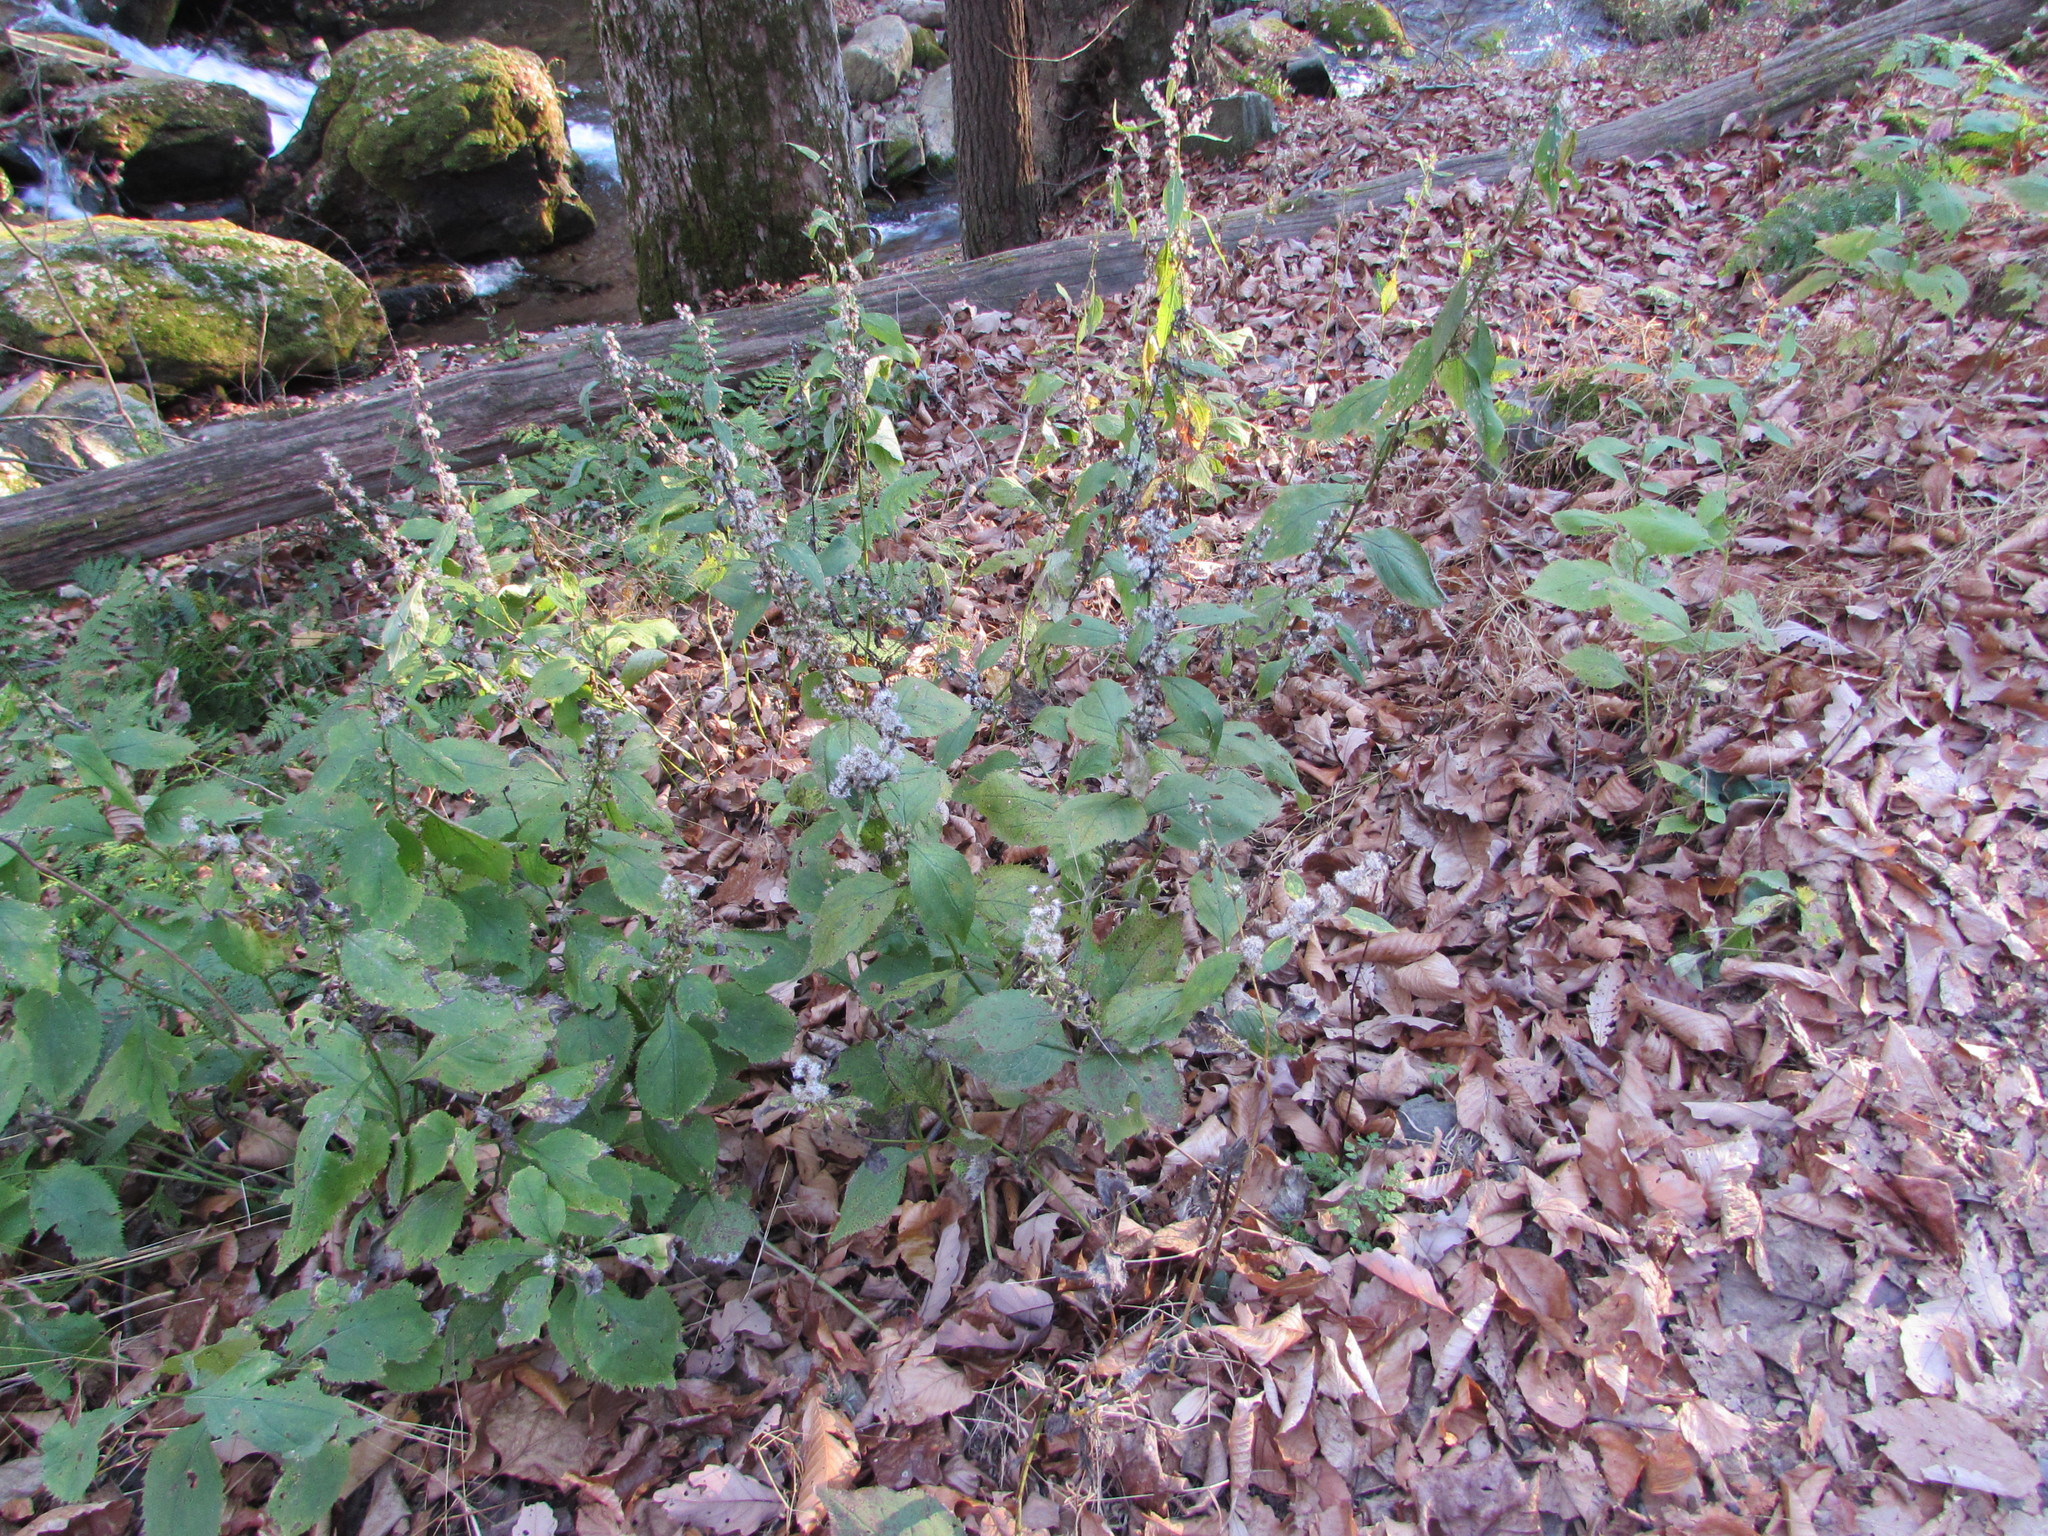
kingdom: Plantae
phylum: Tracheophyta
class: Magnoliopsida
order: Asterales
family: Asteraceae
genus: Solidago
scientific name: Solidago flexicaulis
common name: Zig-zag goldenrod
